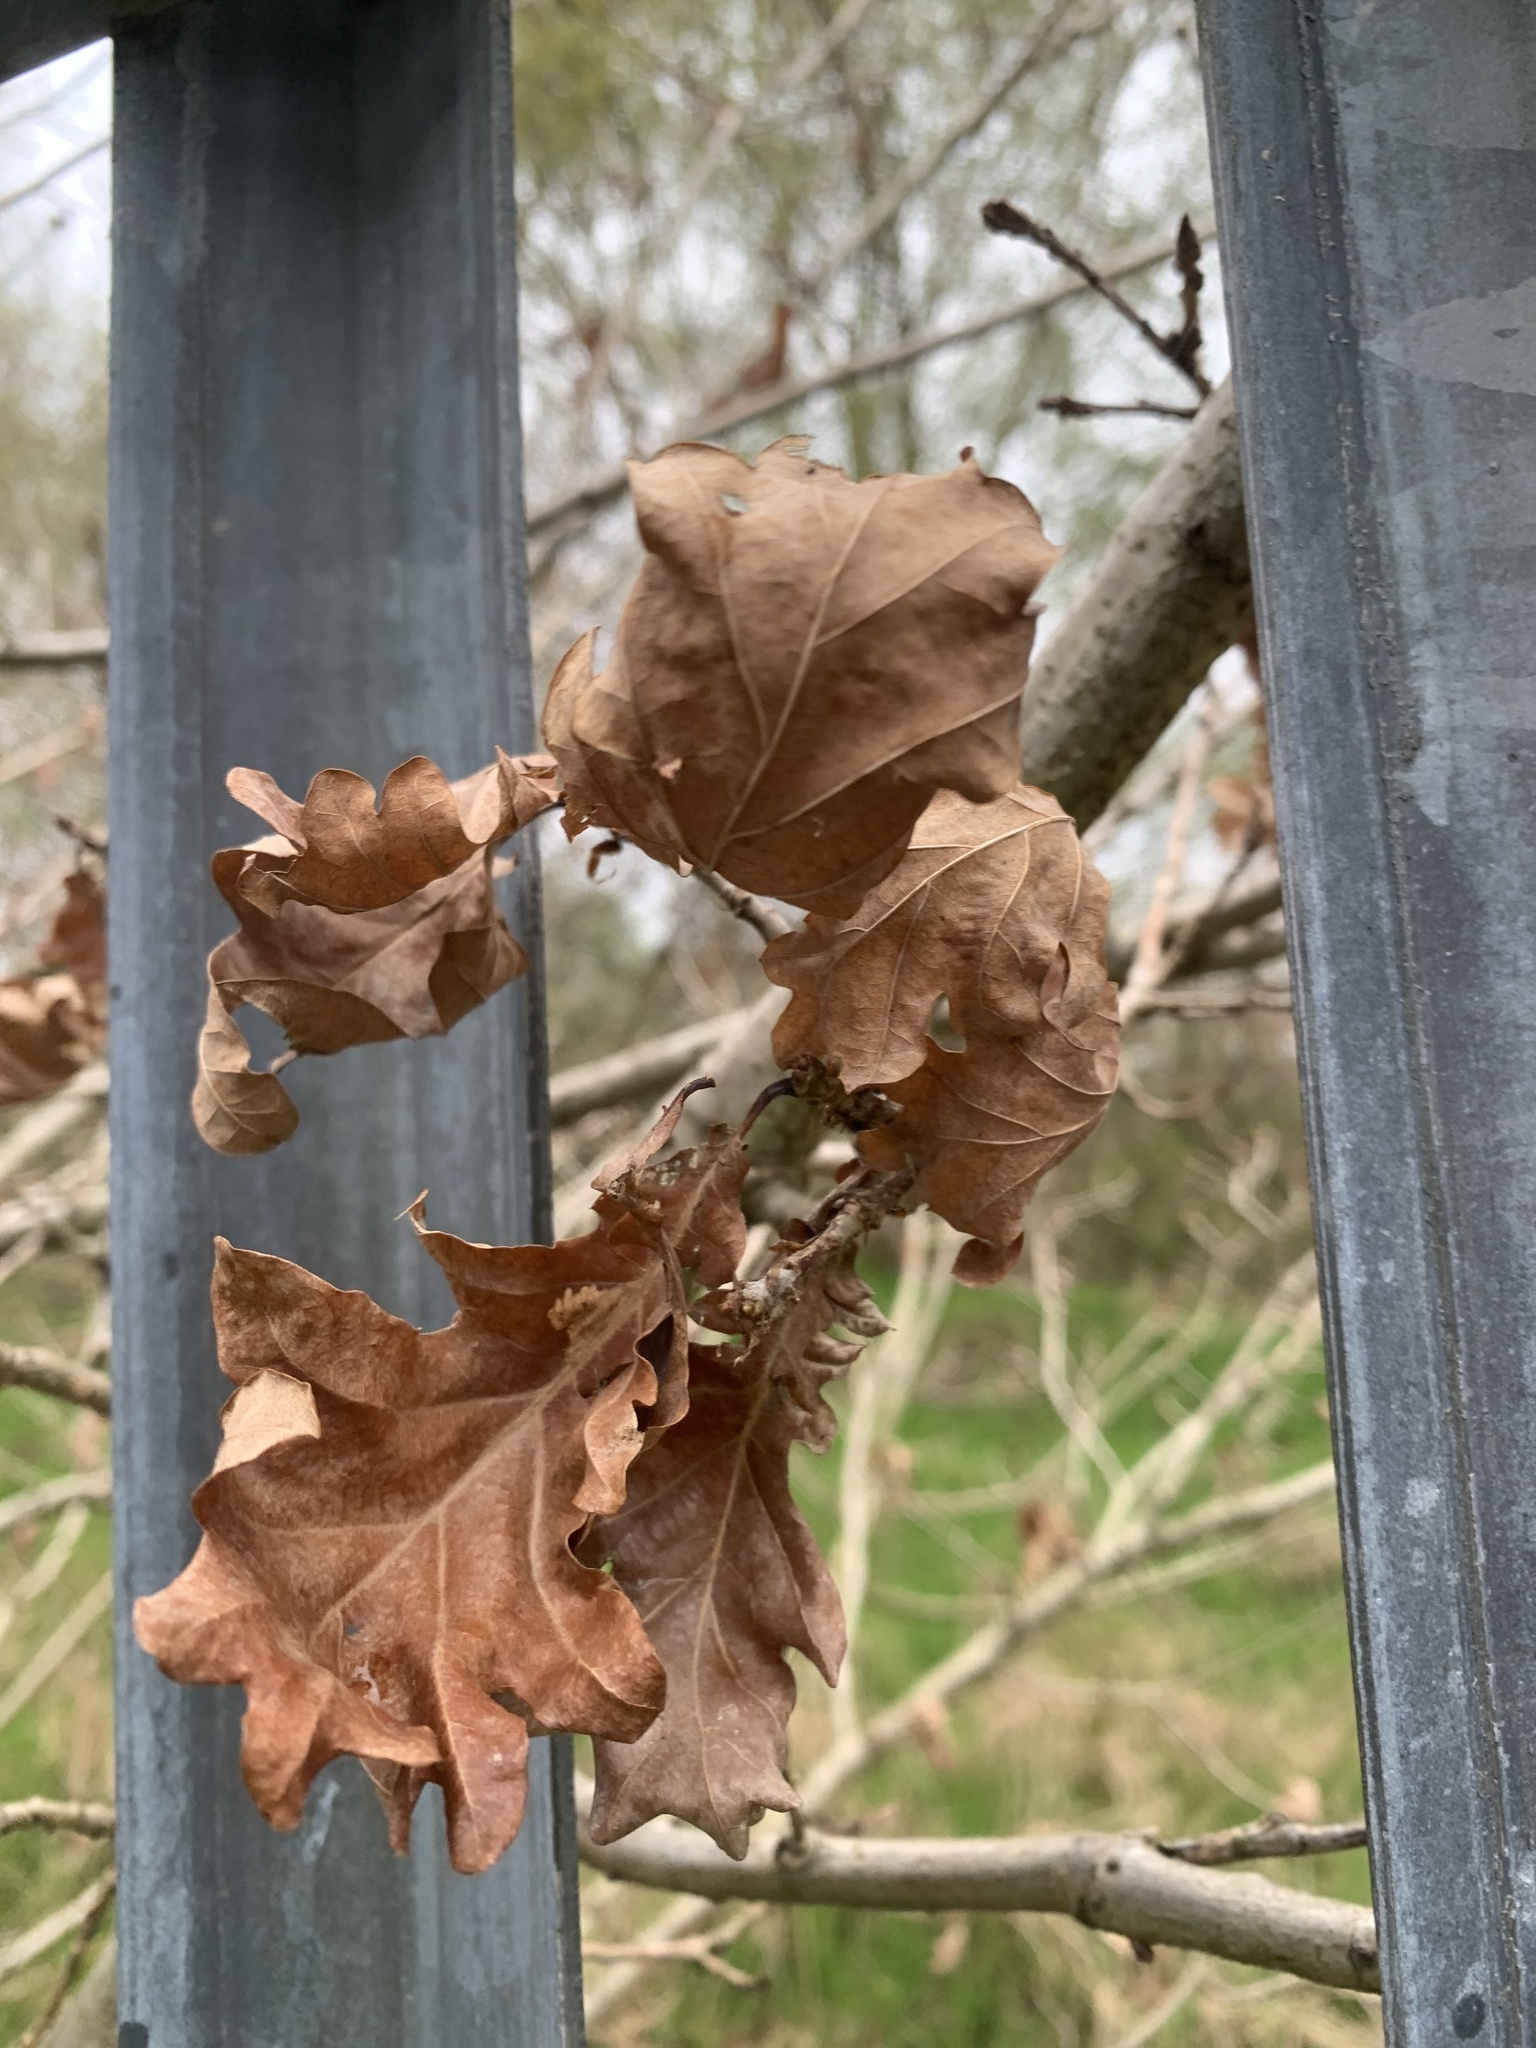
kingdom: Plantae
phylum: Tracheophyta
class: Magnoliopsida
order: Fagales
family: Fagaceae
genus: Quercus
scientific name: Quercus robur
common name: Pedunculate oak
